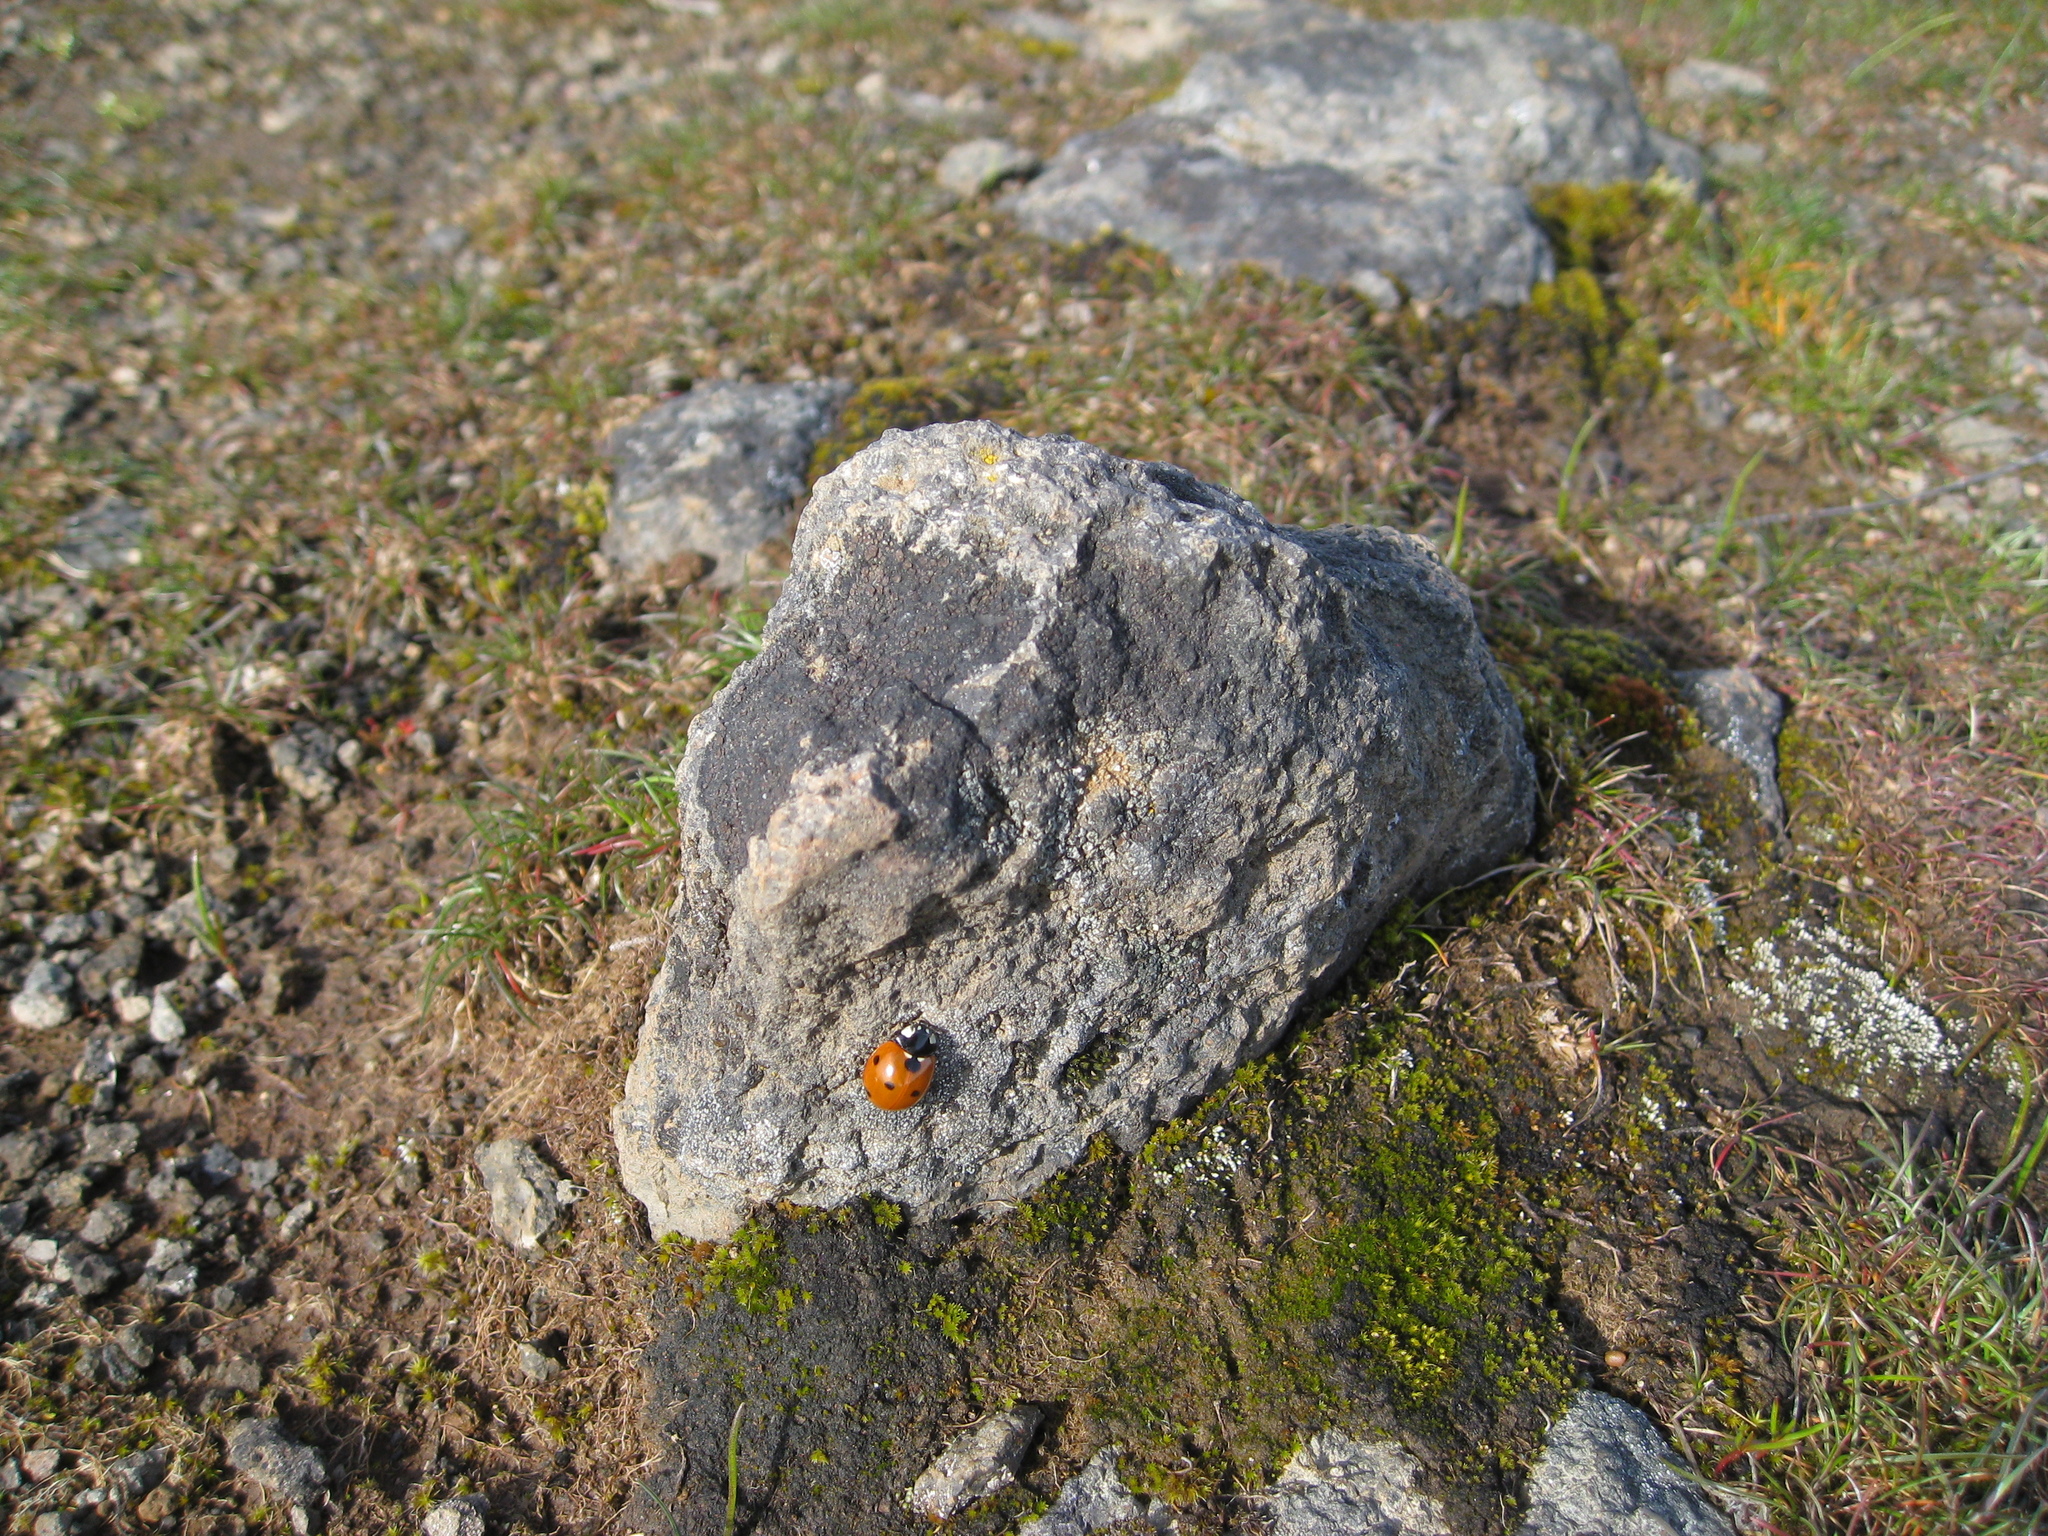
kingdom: Animalia
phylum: Arthropoda
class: Insecta
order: Coleoptera
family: Coccinellidae
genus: Coccinella
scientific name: Coccinella septempunctata
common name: Sevenspotted lady beetle
